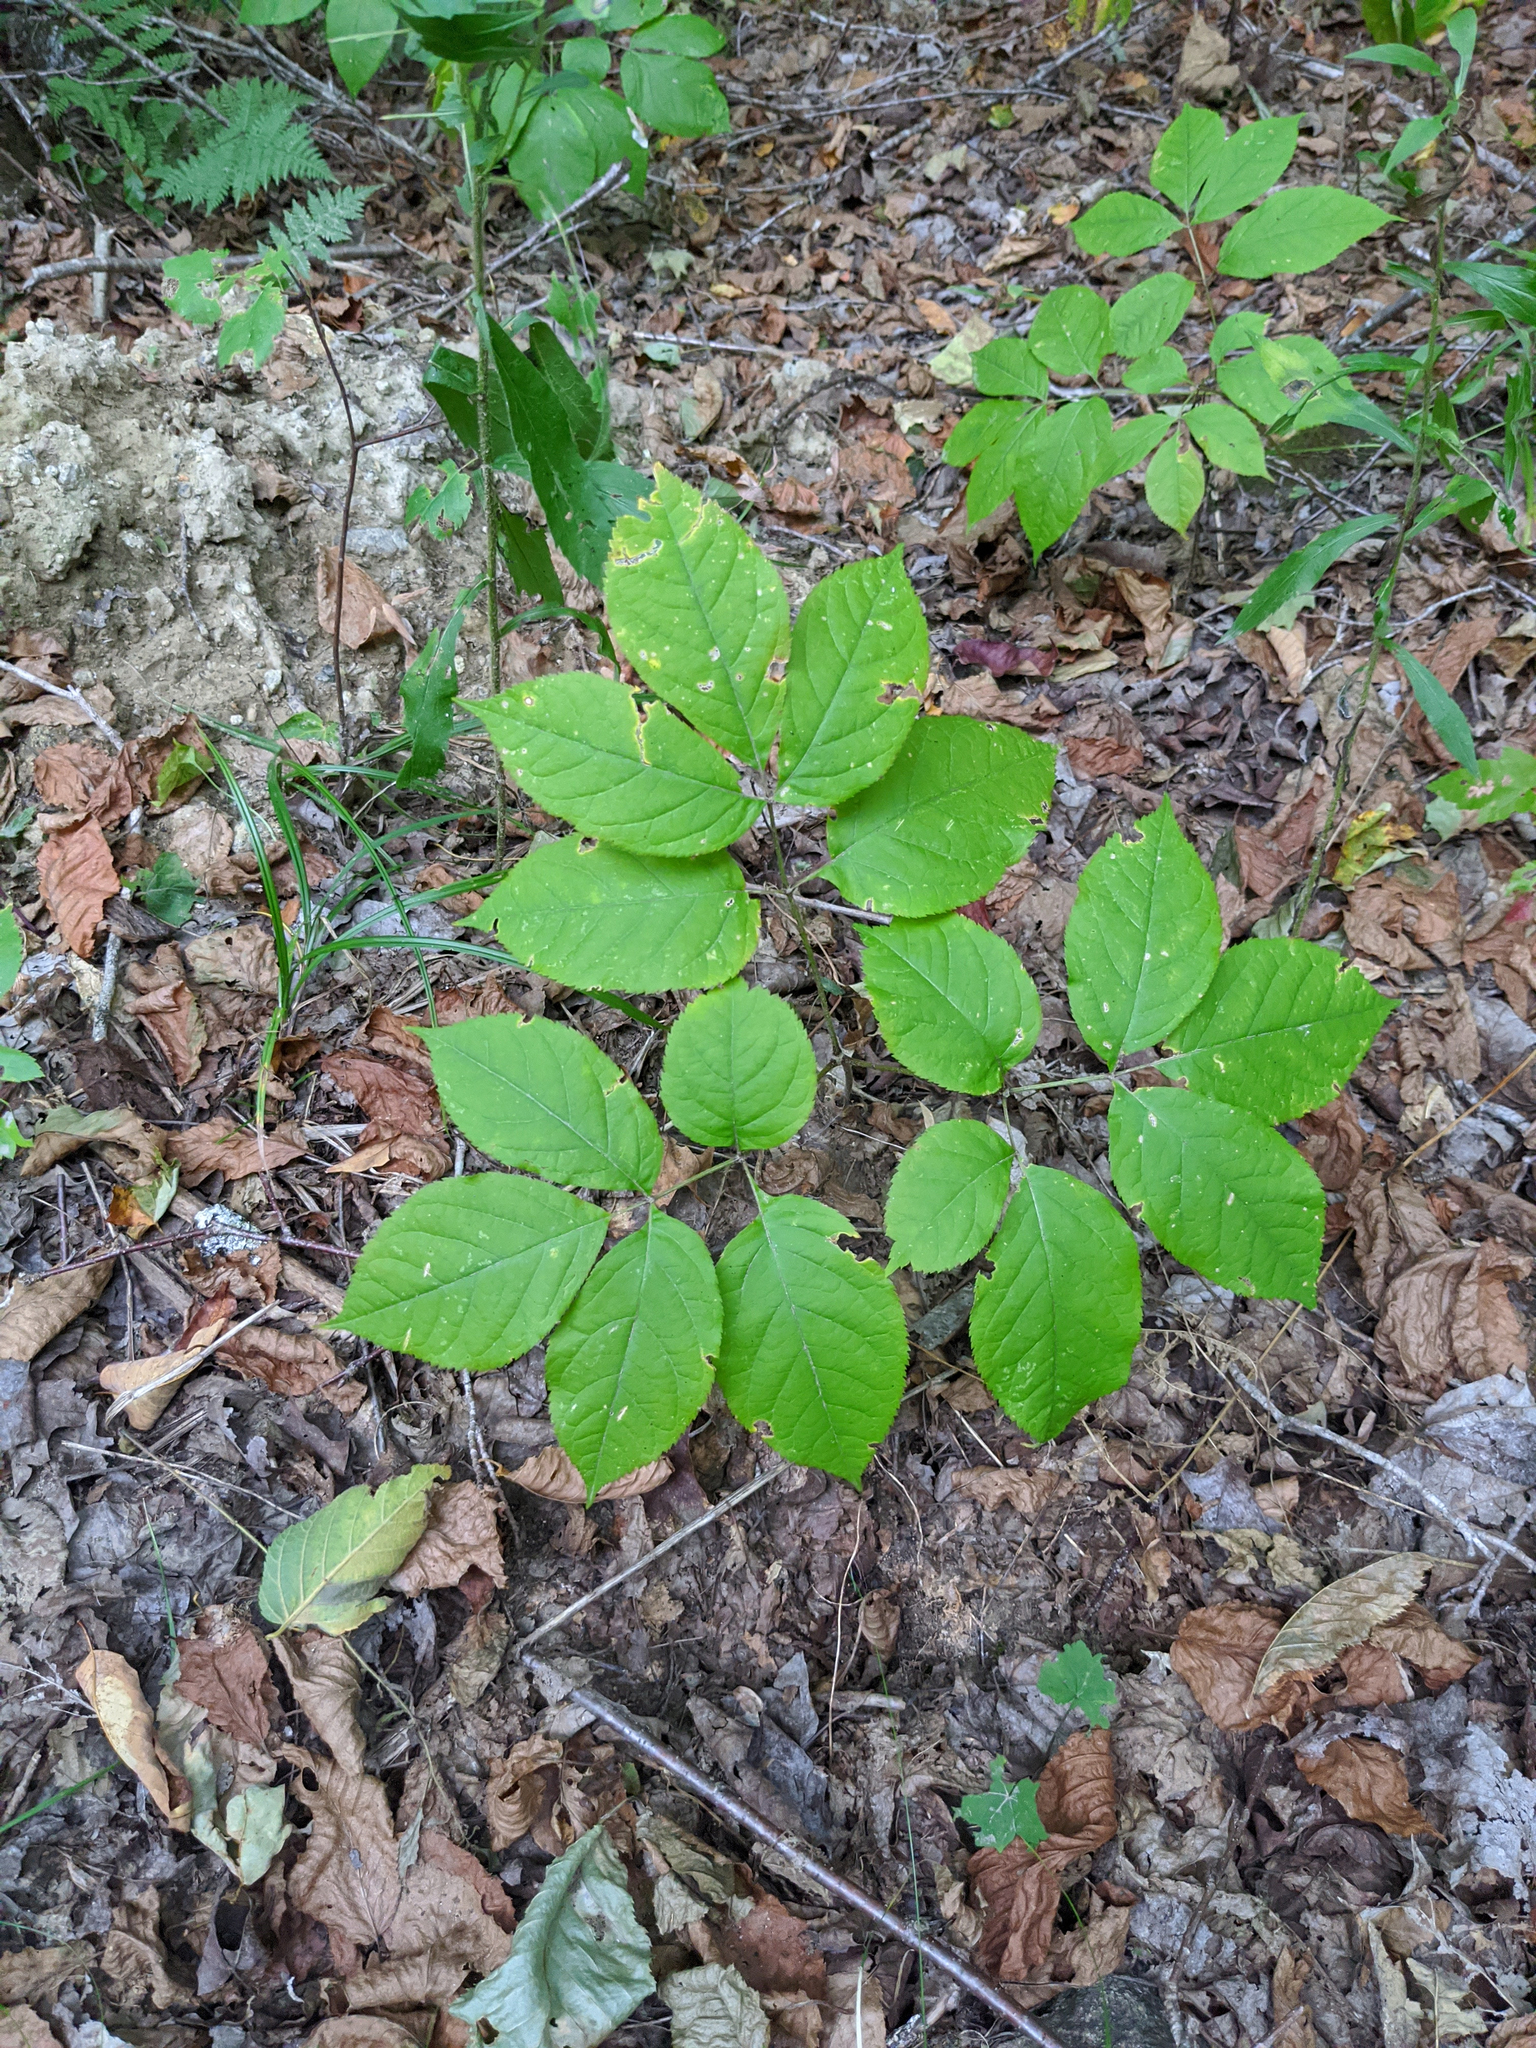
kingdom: Plantae
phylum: Tracheophyta
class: Magnoliopsida
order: Apiales
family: Araliaceae
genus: Aralia
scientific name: Aralia nudicaulis
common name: Wild sarsaparilla
